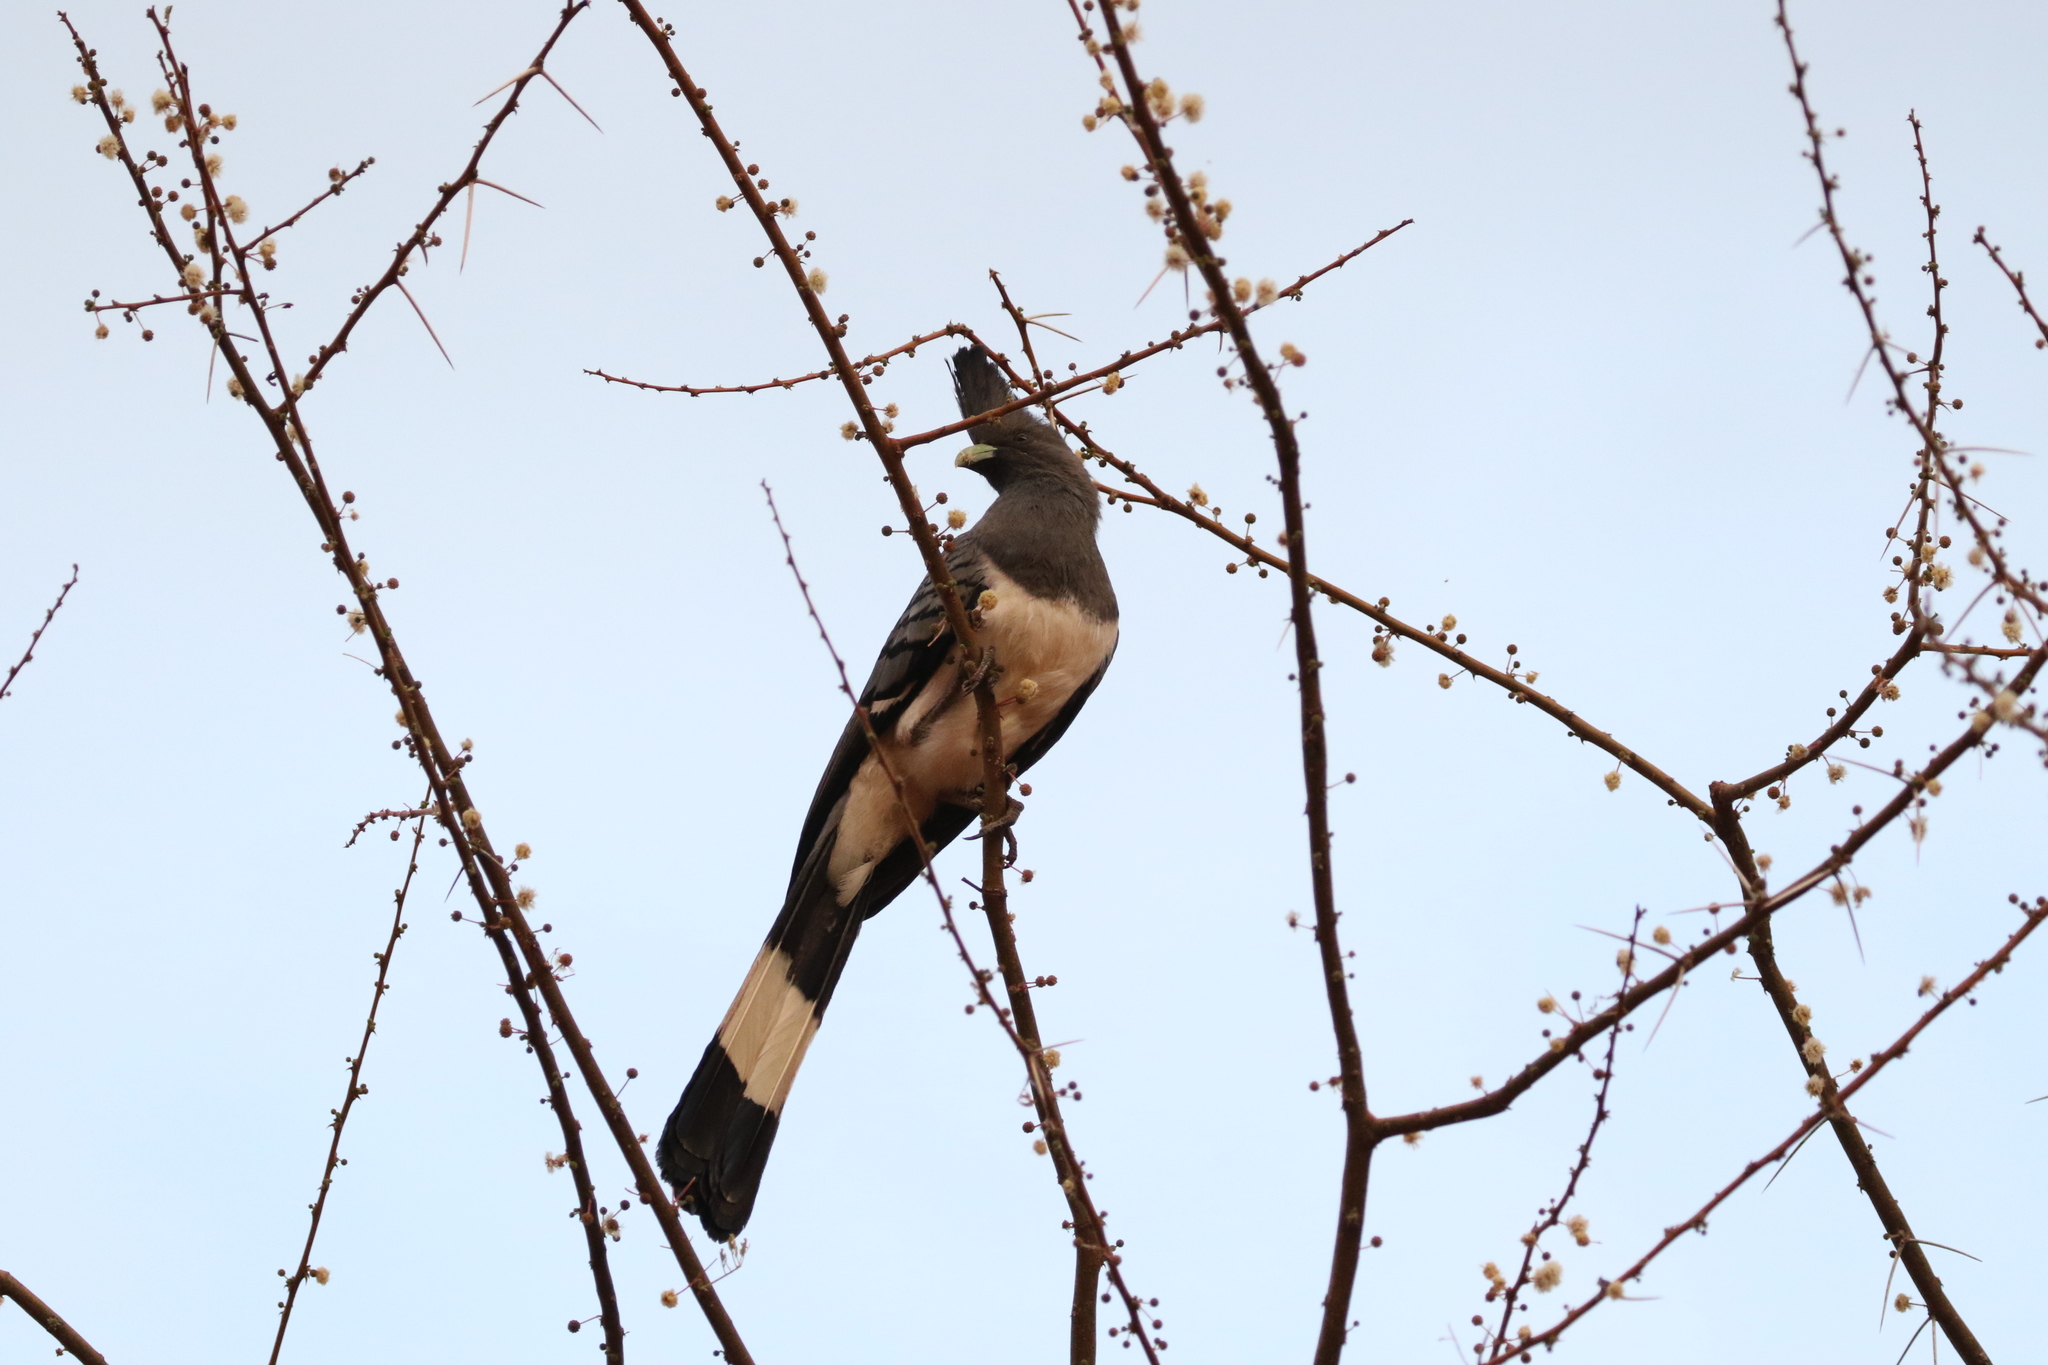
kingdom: Animalia
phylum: Chordata
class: Aves
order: Musophagiformes
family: Musophagidae
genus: Corythaixoides
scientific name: Corythaixoides leucogaster
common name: White-bellied go-away-bird
